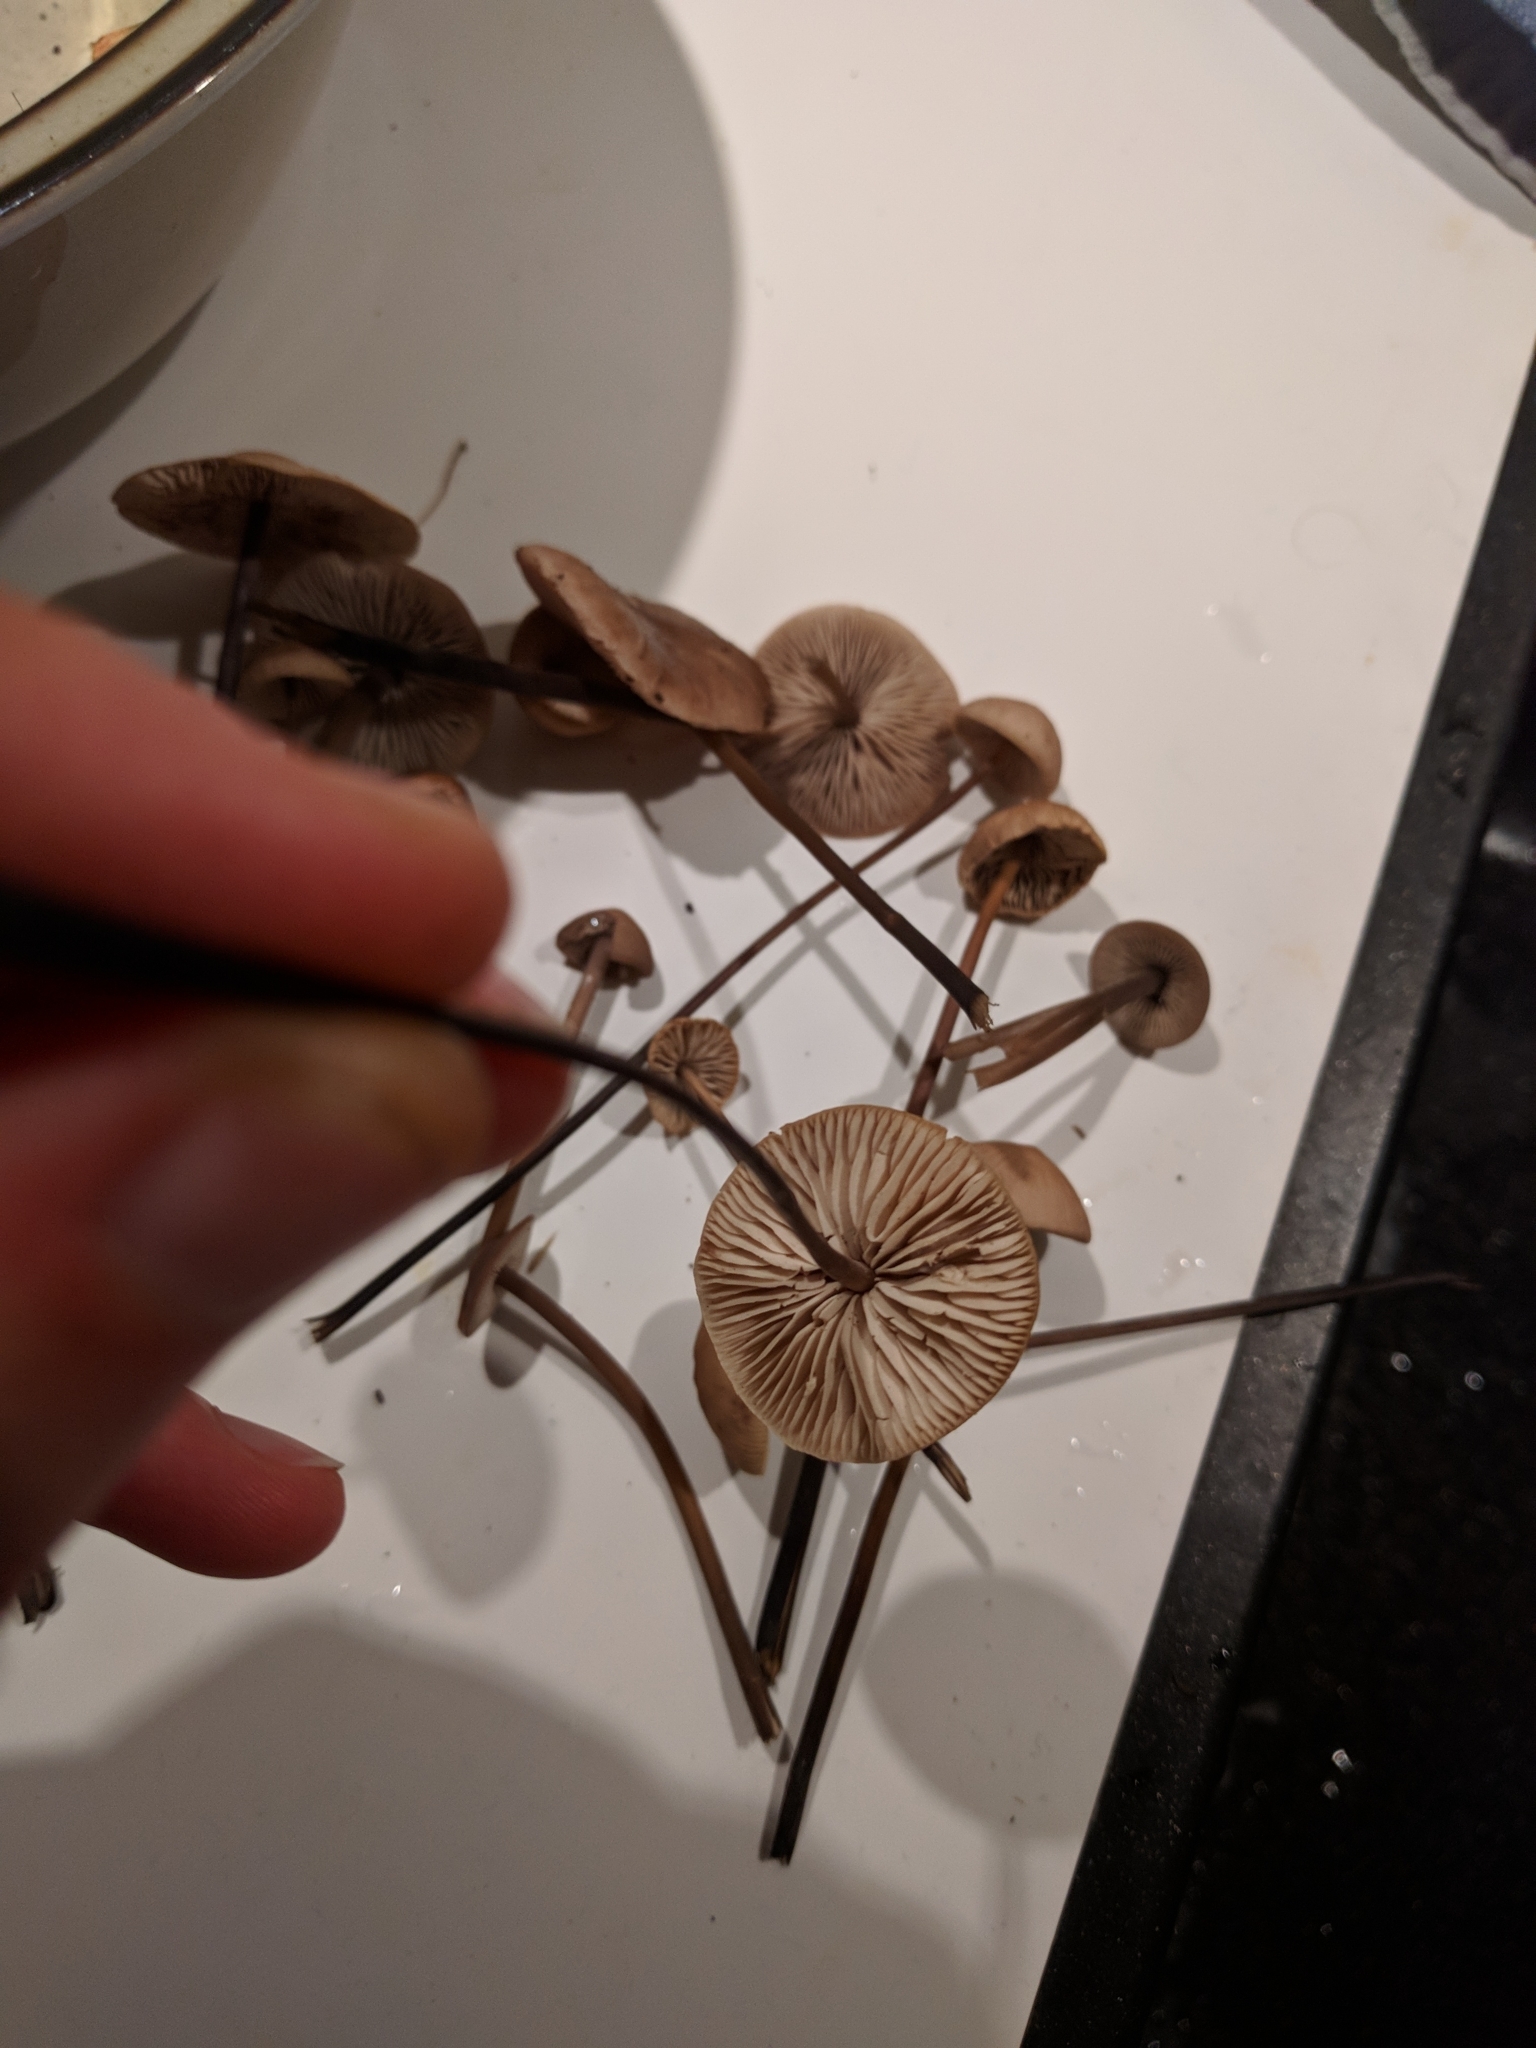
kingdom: Fungi
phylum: Basidiomycota
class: Agaricomycetes
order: Agaricales
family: Omphalotaceae
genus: Mycetinis
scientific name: Mycetinis alliaceus
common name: Garlic parachute
